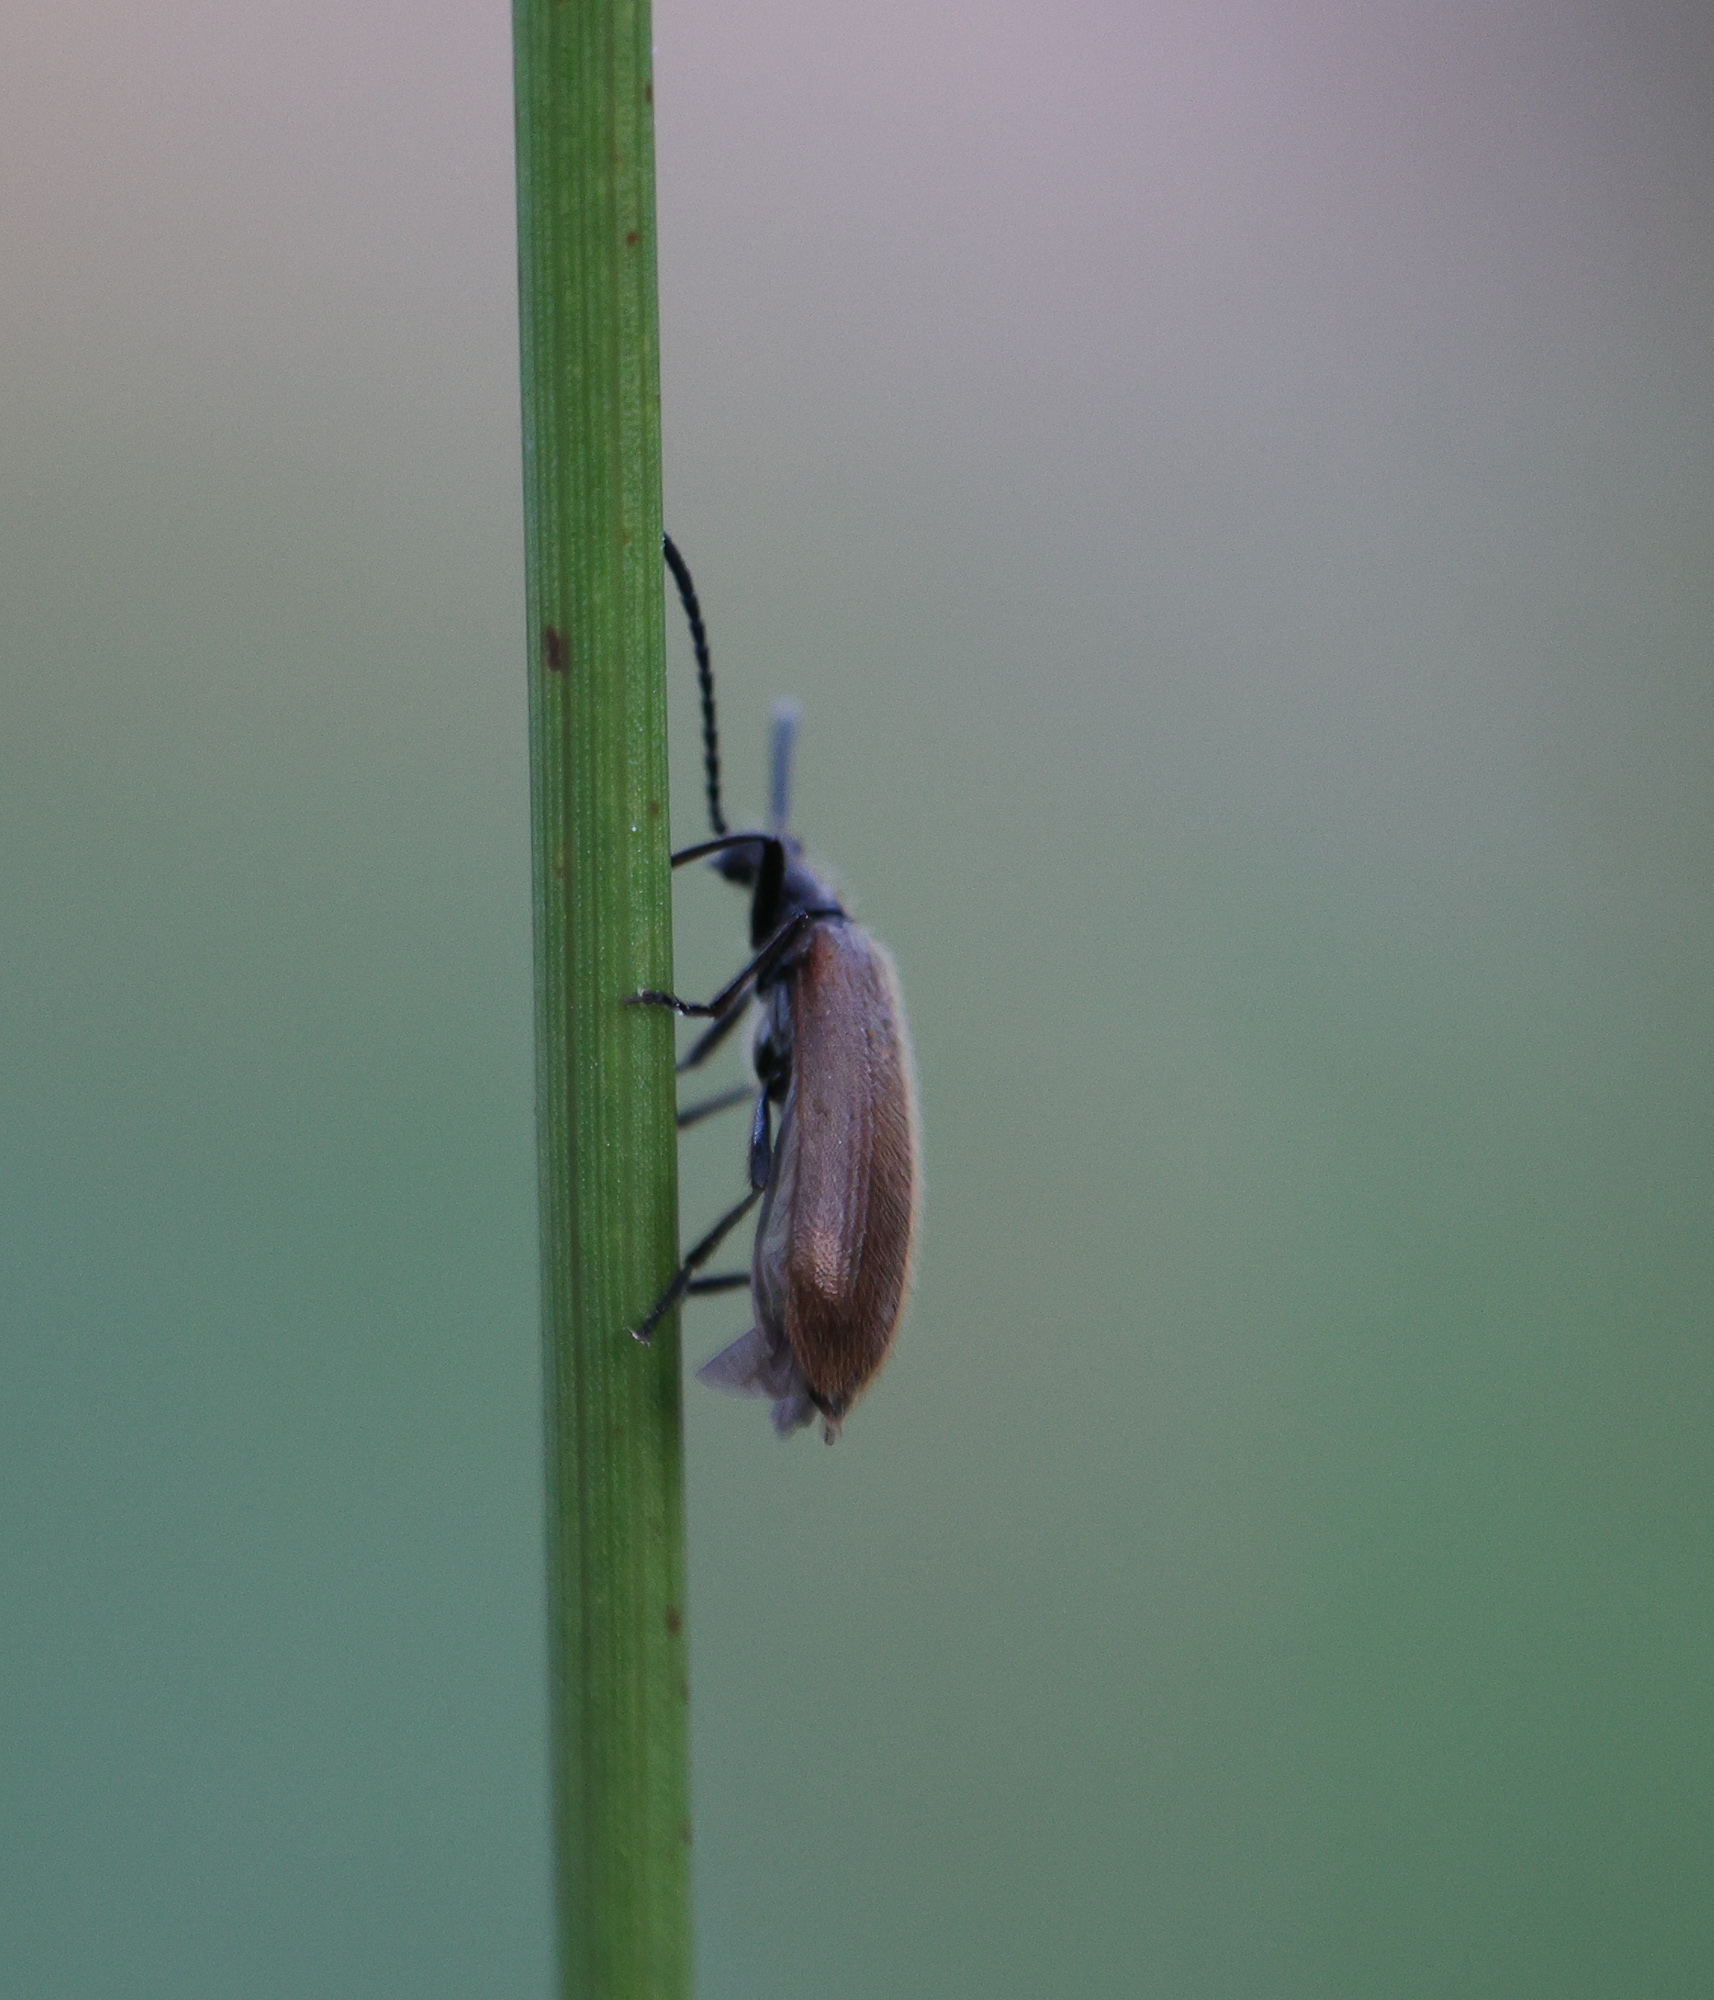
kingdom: Animalia
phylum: Arthropoda
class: Insecta
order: Coleoptera
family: Tenebrionidae
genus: Lagria
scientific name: Lagria hirta
